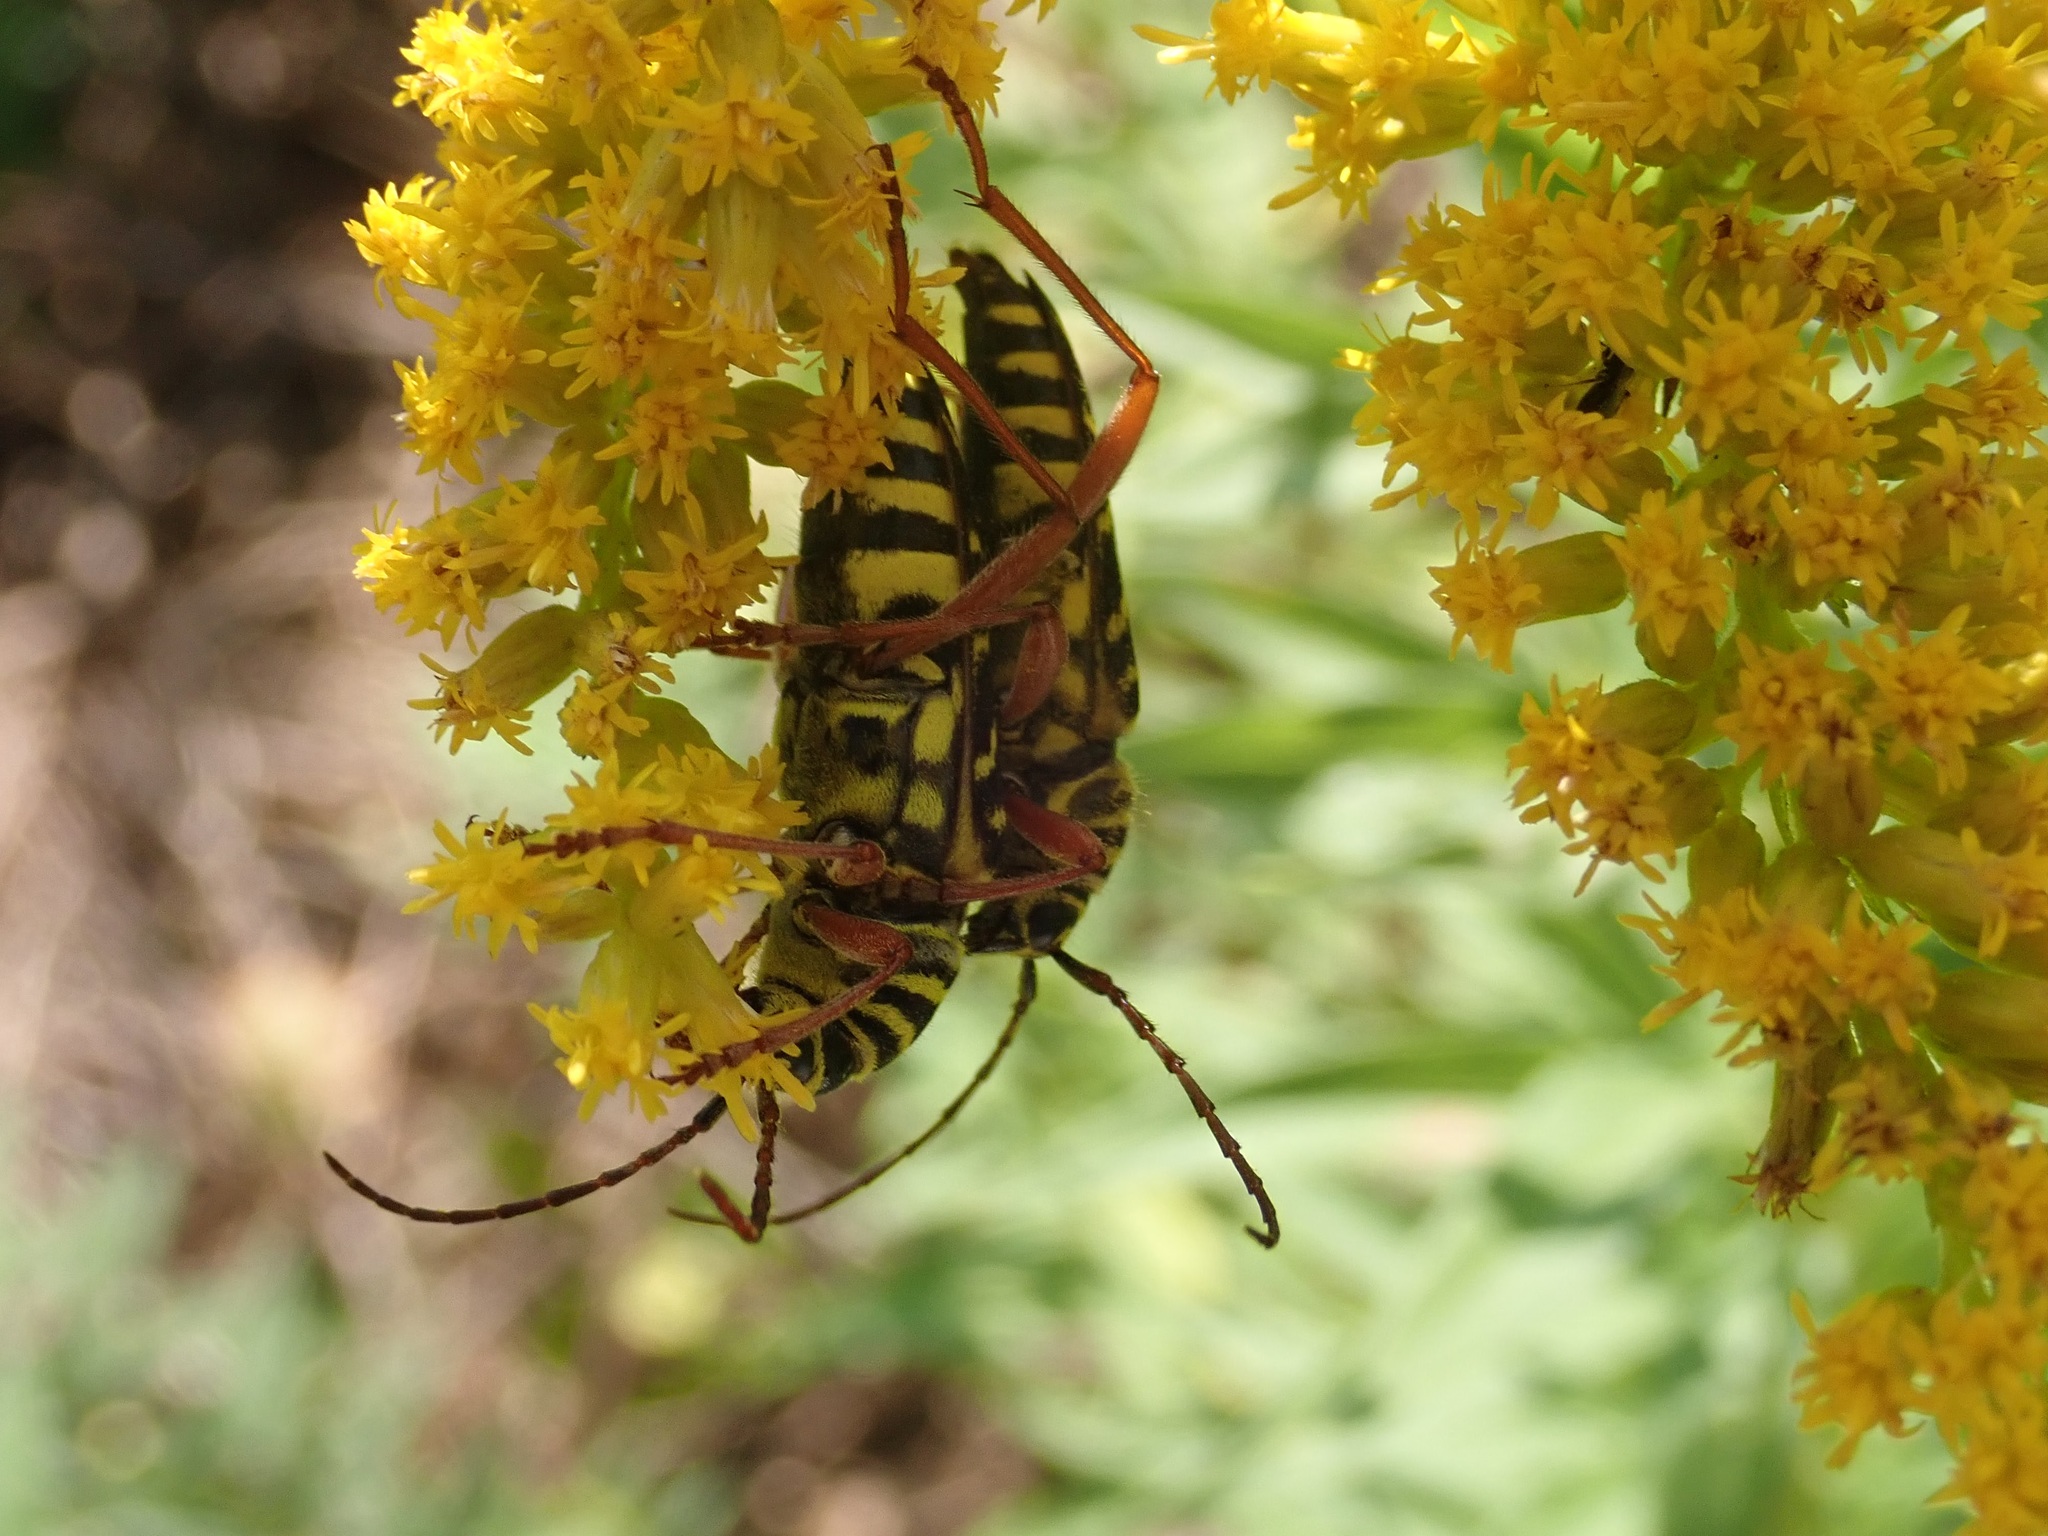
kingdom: Animalia
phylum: Arthropoda
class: Insecta
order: Coleoptera
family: Cerambycidae
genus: Megacyllene
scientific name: Megacyllene robiniae
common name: Locust borer
